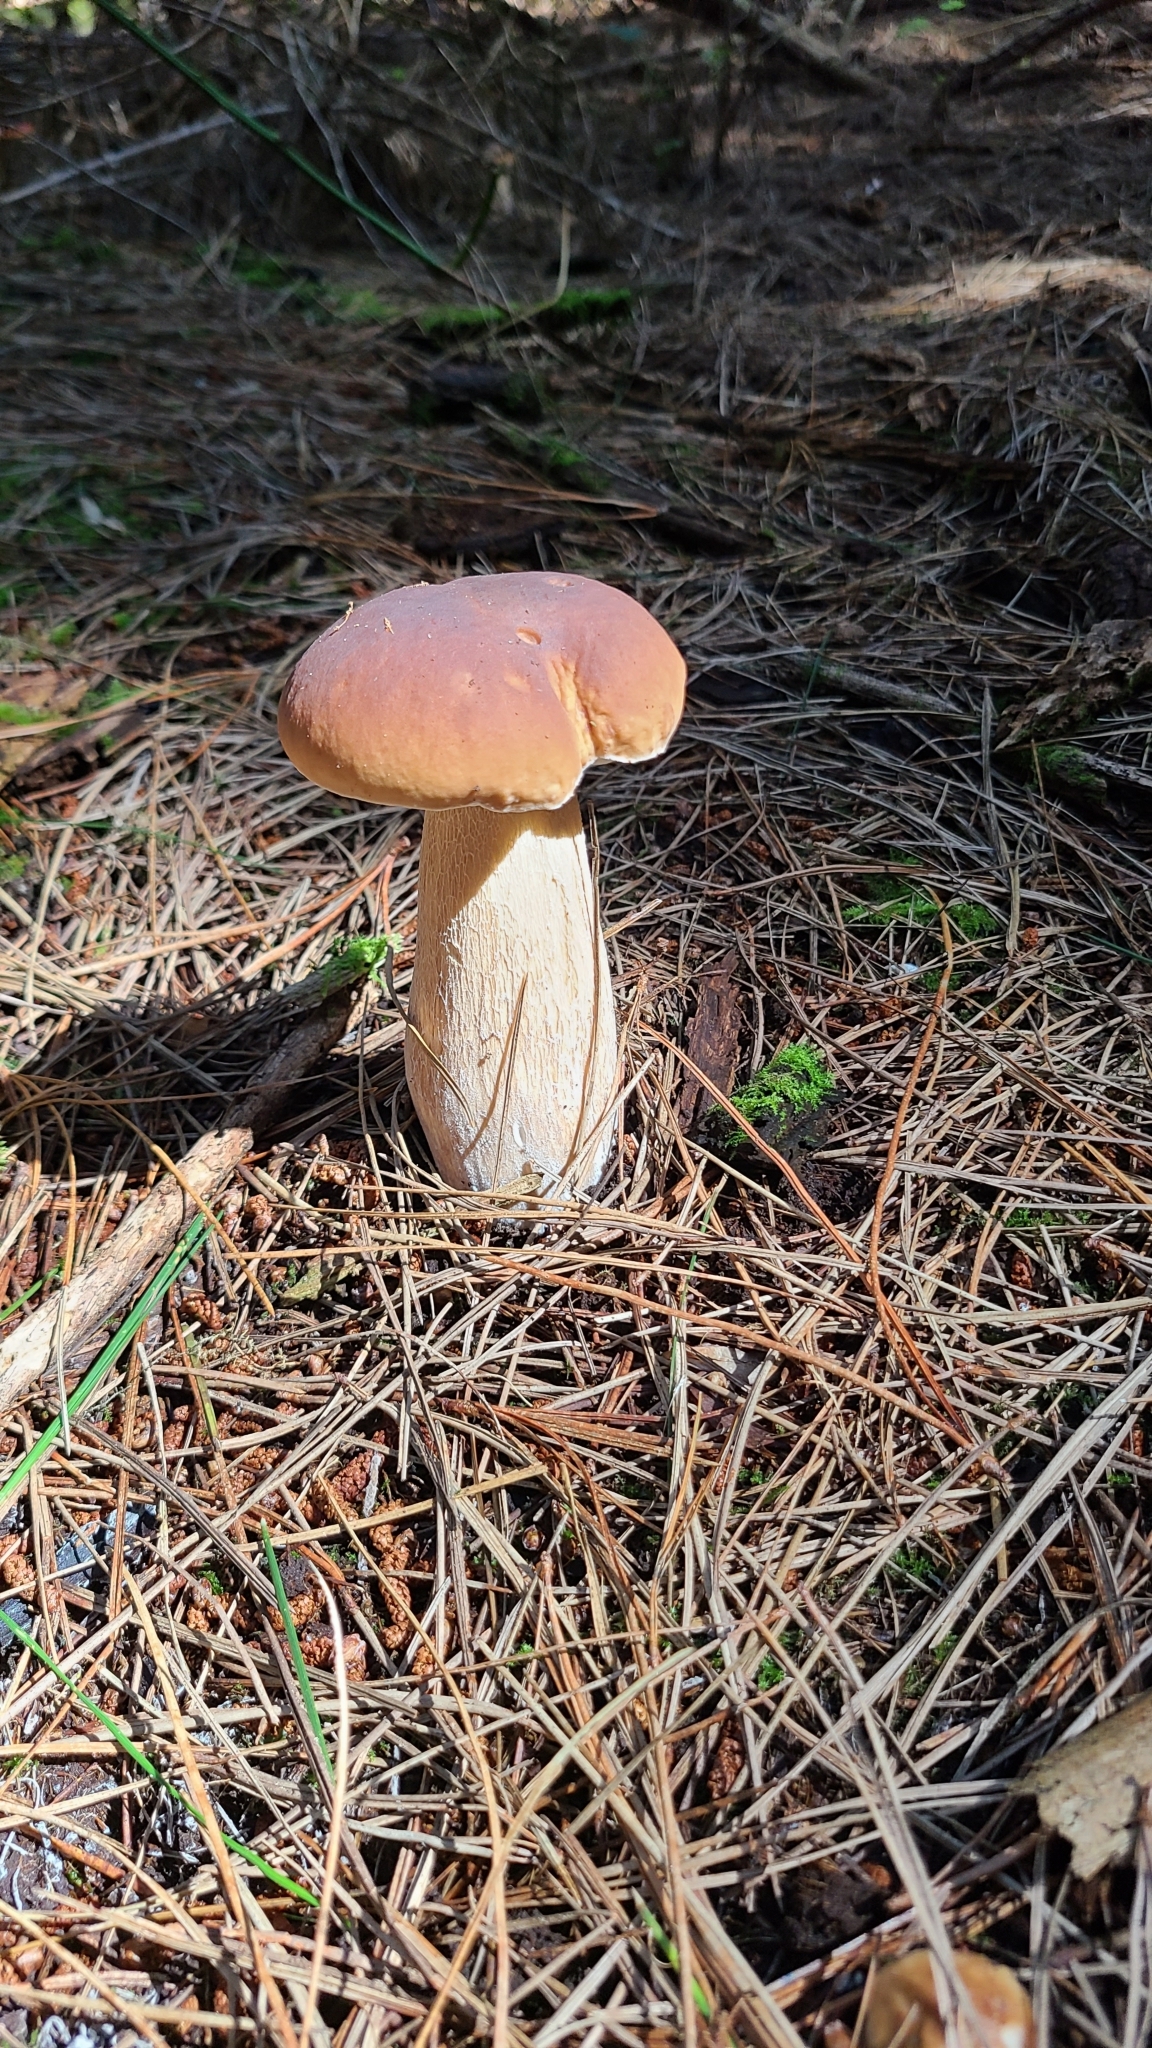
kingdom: Fungi
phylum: Basidiomycota
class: Agaricomycetes
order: Boletales
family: Boletaceae
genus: Boletus
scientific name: Boletus edulis
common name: Cep
